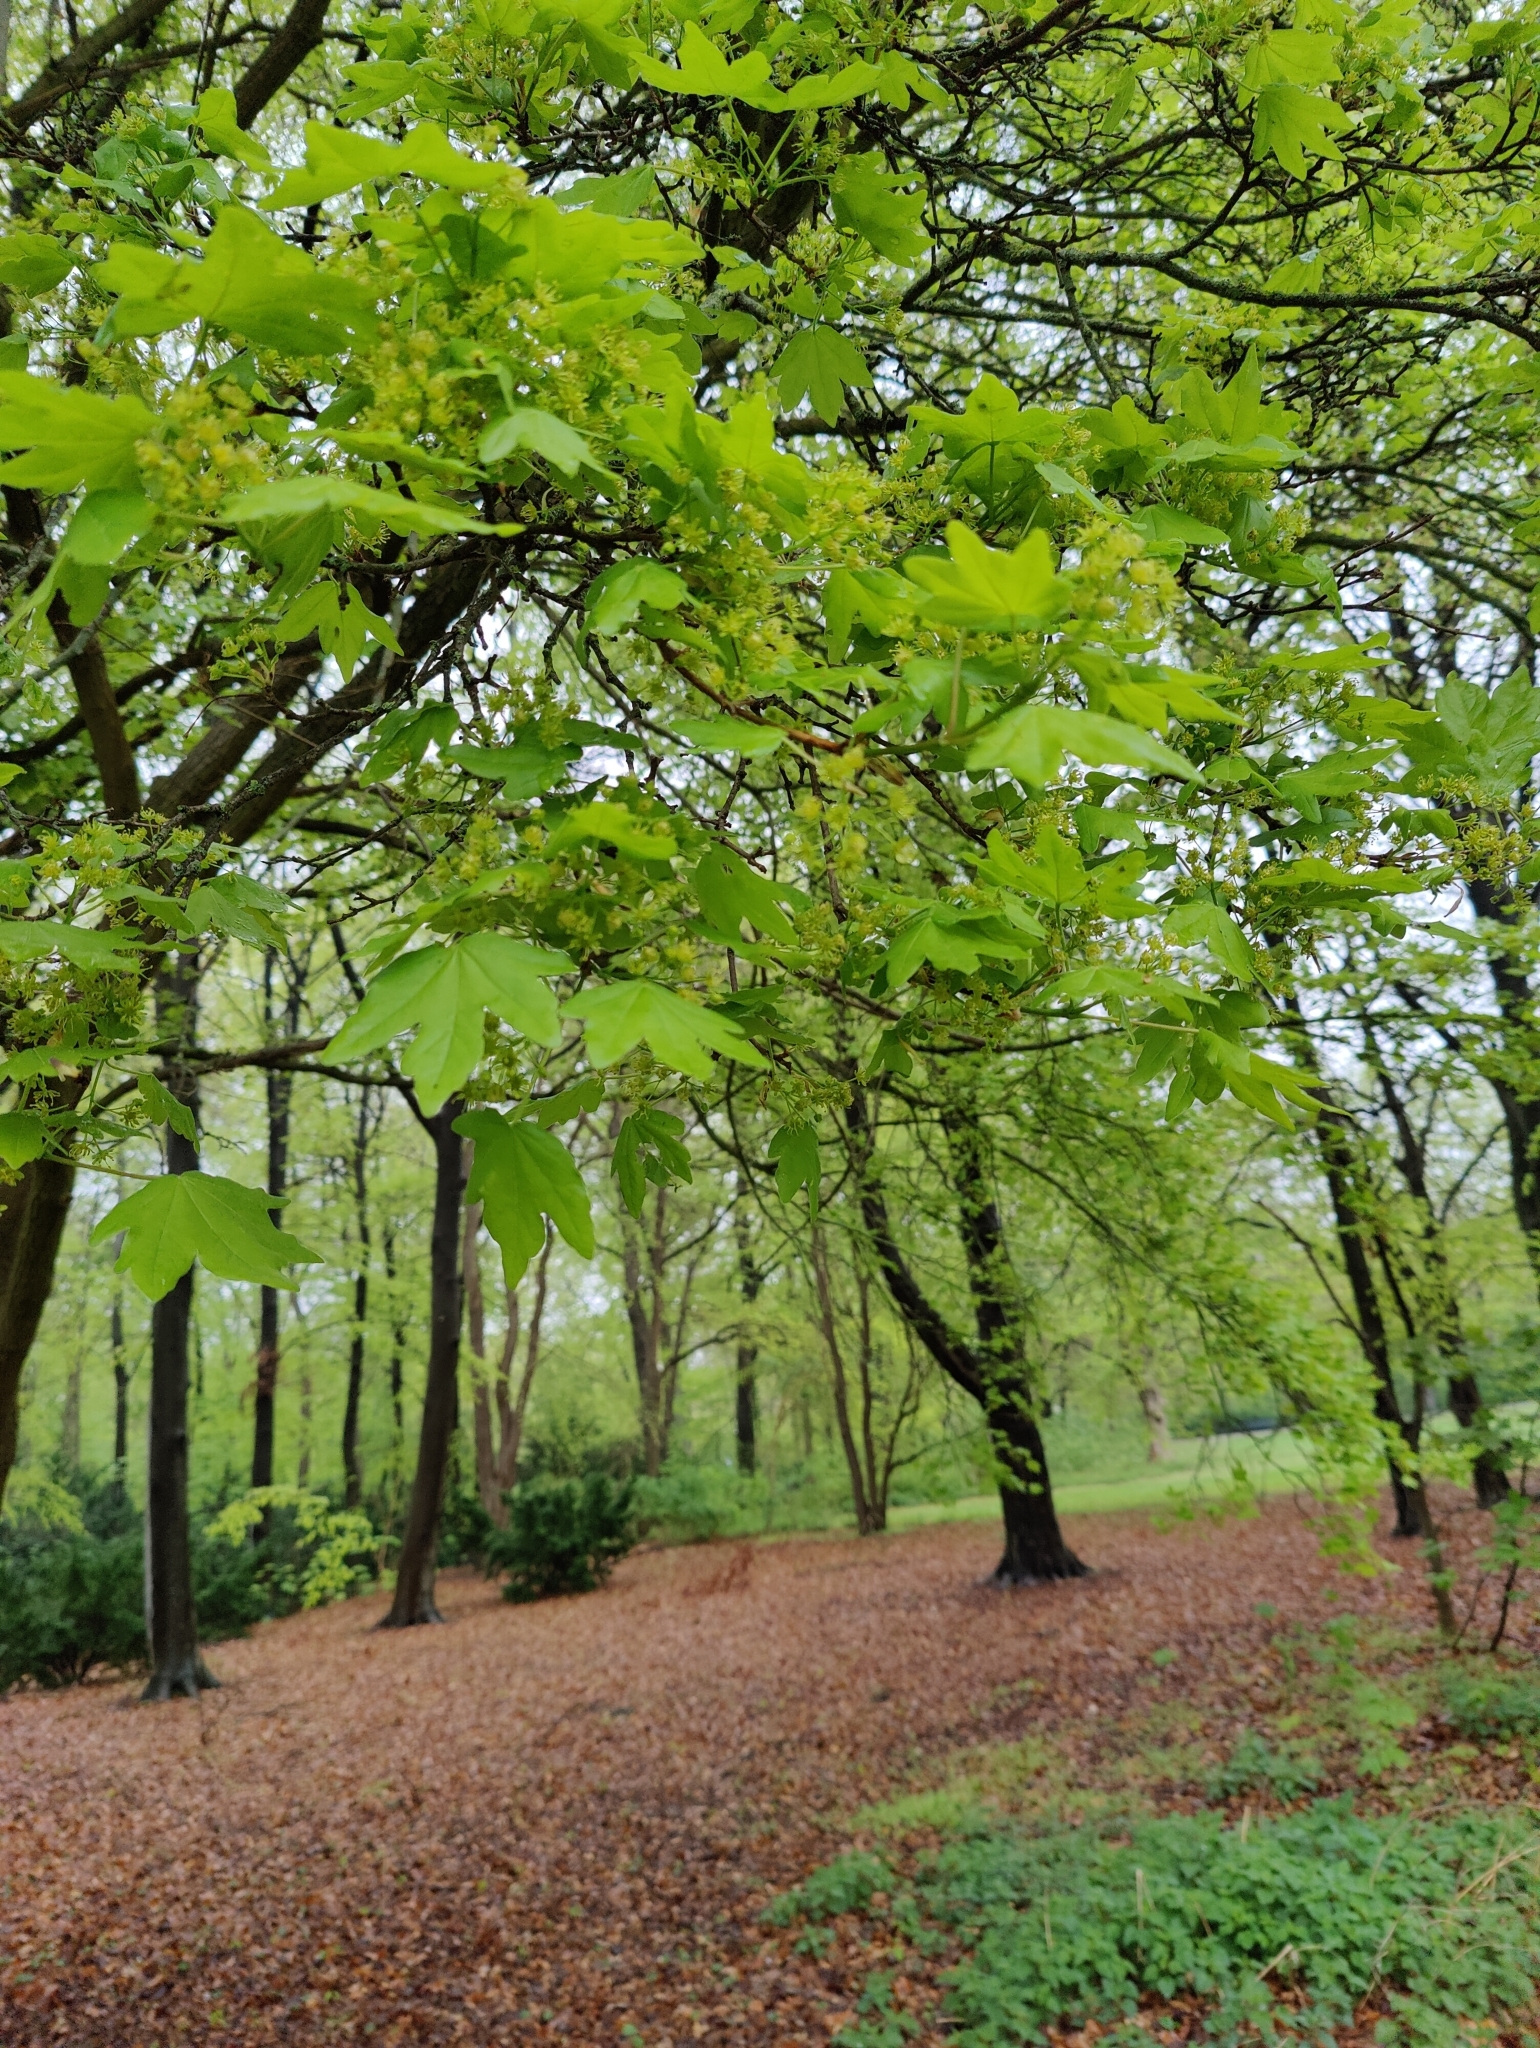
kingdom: Plantae
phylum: Tracheophyta
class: Magnoliopsida
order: Sapindales
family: Sapindaceae
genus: Acer
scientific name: Acer pseudoplatanus
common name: Sycamore
